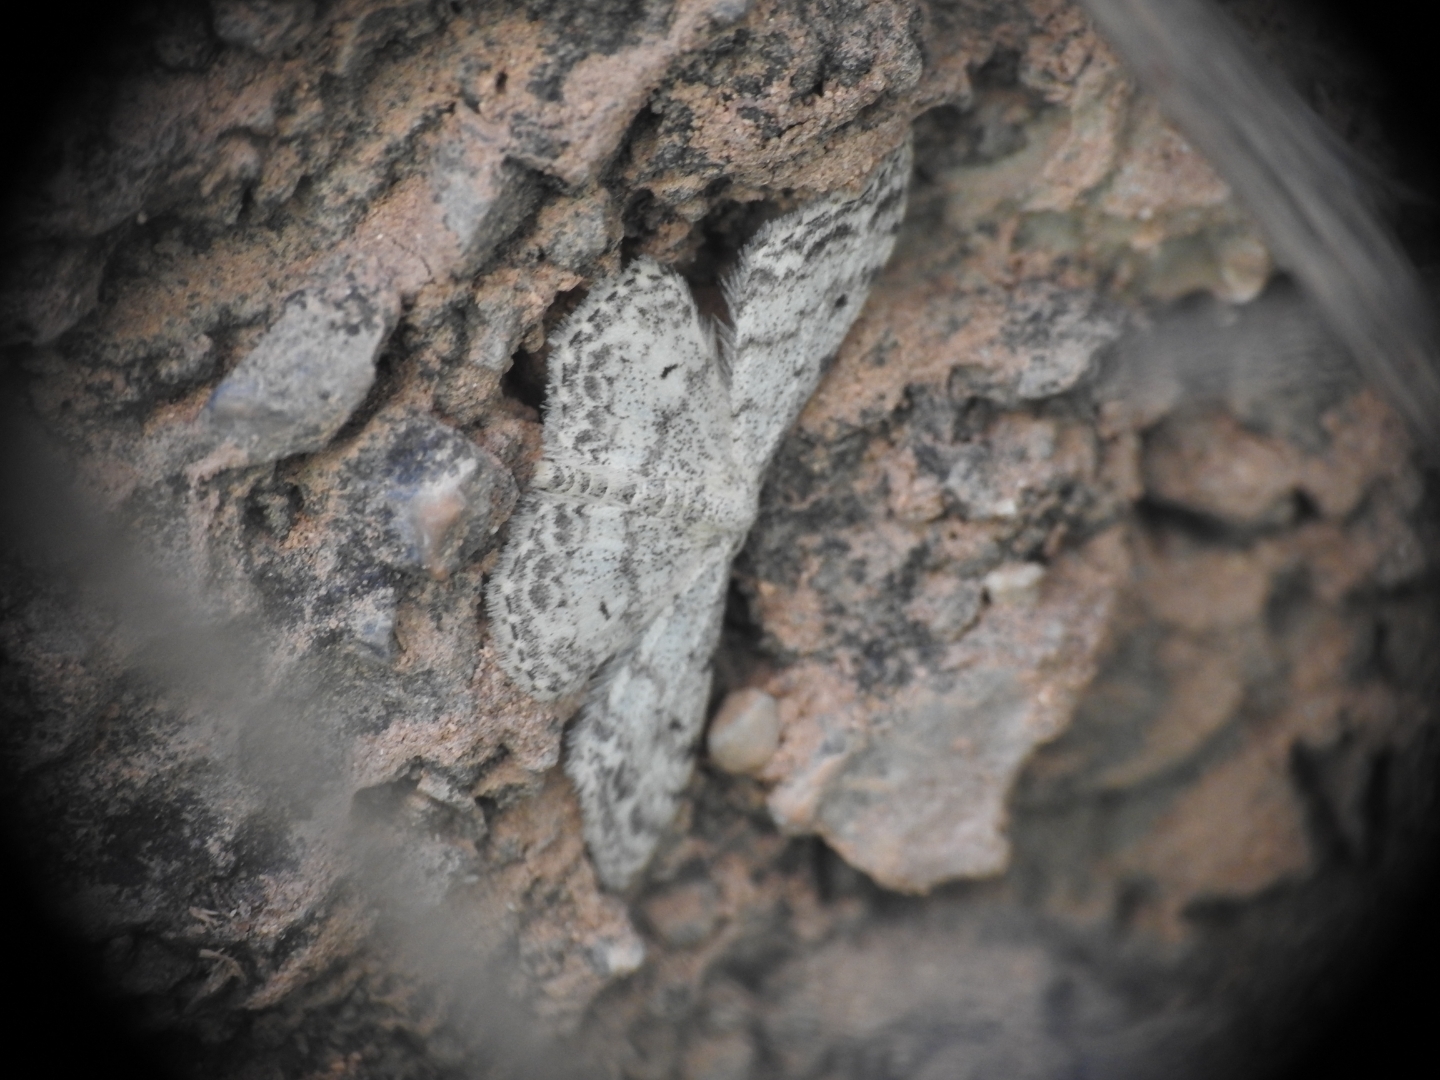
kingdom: Animalia
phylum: Arthropoda
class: Insecta
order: Lepidoptera
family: Geometridae
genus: Idaea
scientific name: Idaea camparia
